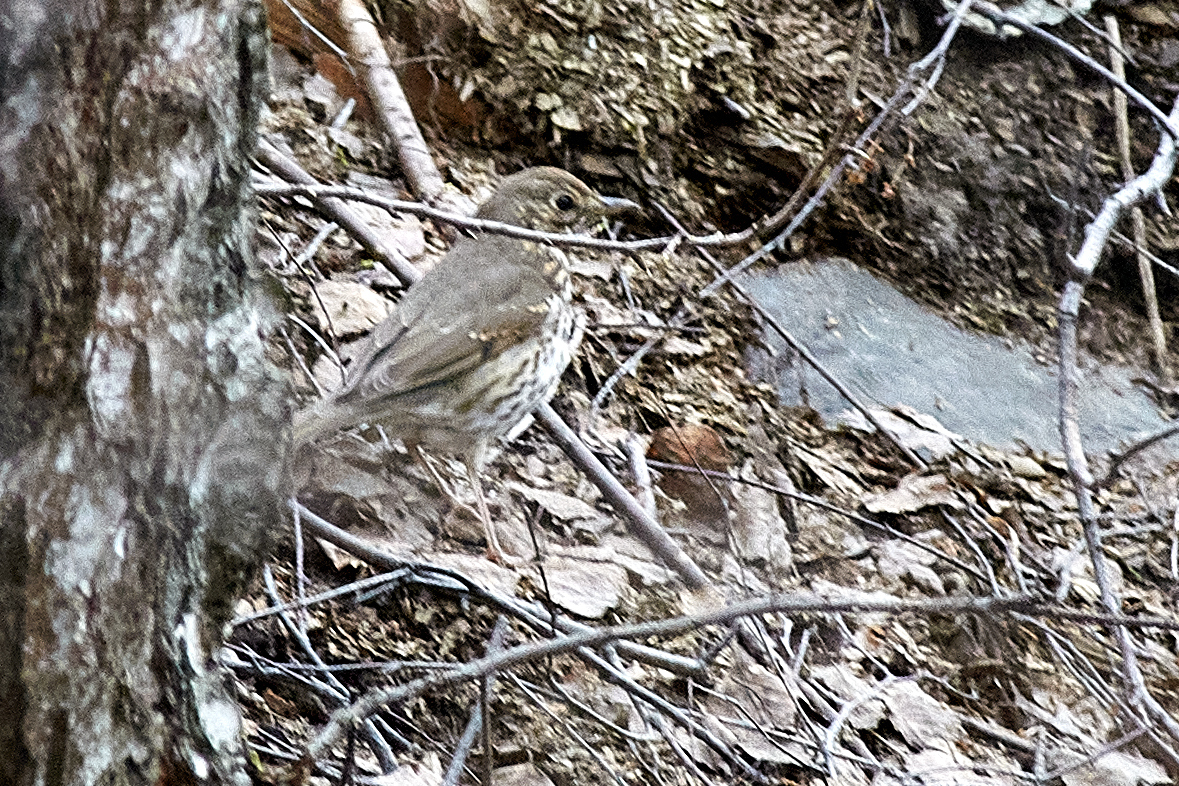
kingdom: Animalia
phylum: Chordata
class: Aves
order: Passeriformes
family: Turdidae
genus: Turdus
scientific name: Turdus philomelos
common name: Song thrush
